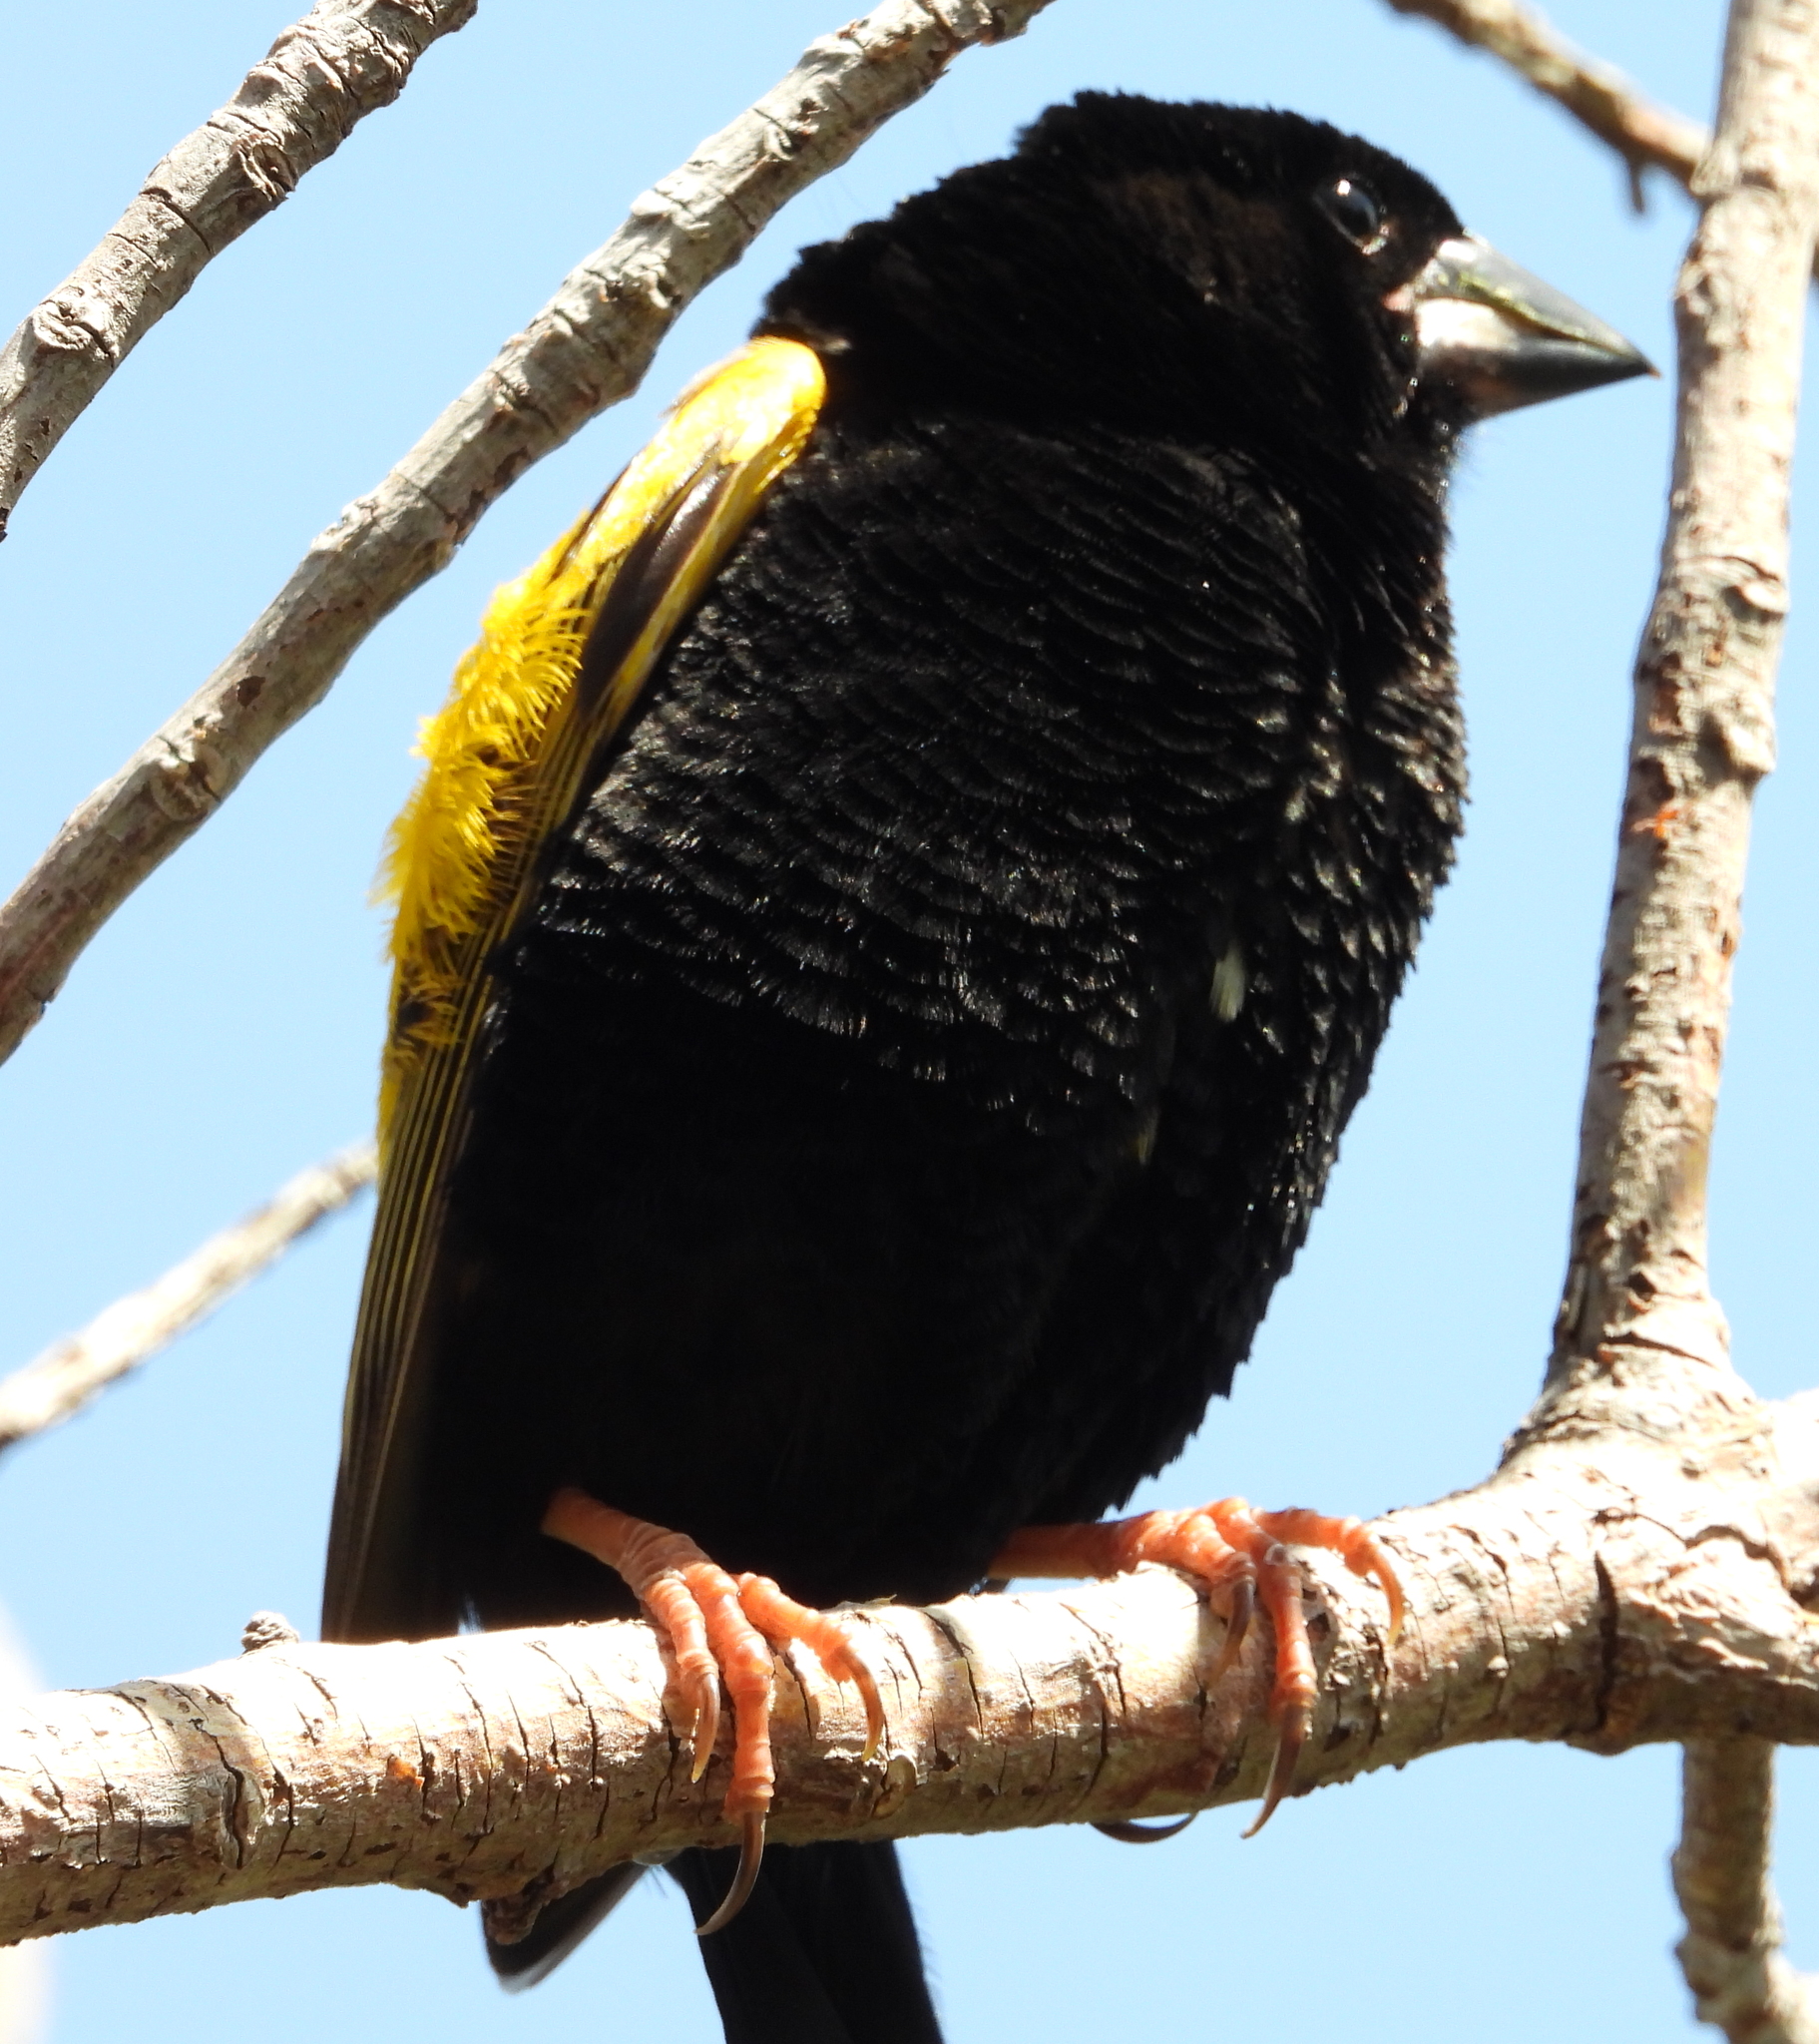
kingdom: Animalia
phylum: Chordata
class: Aves
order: Passeriformes
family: Ploceidae
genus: Euplectes
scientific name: Euplectes capensis
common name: Yellow bishop
